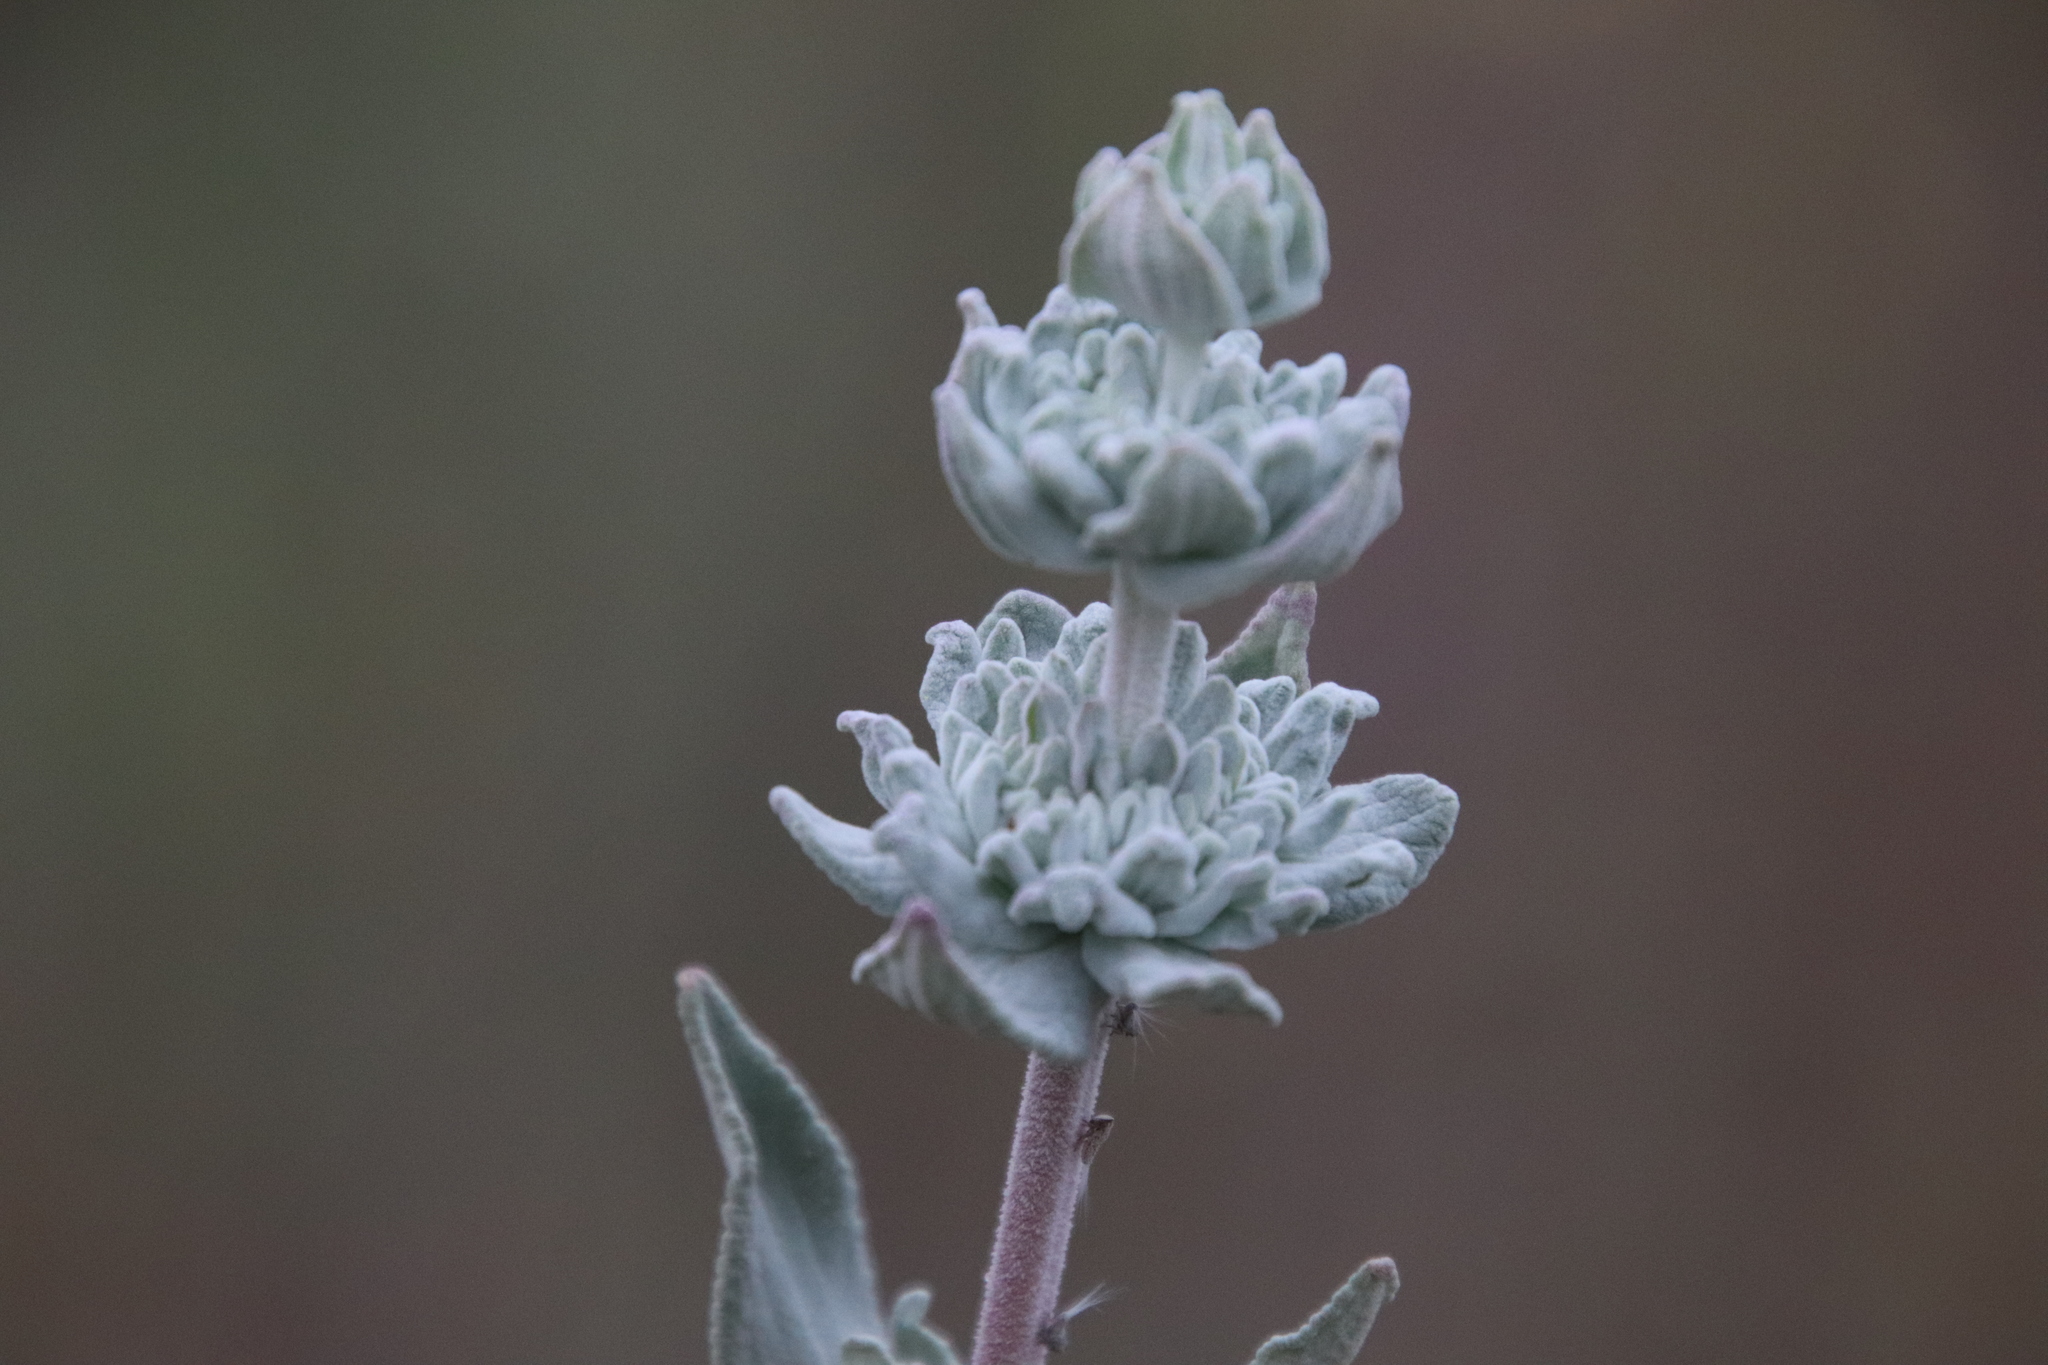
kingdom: Plantae
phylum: Tracheophyta
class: Magnoliopsida
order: Lamiales
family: Lamiaceae
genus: Salvia
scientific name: Salvia leucophylla
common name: Purple sage
